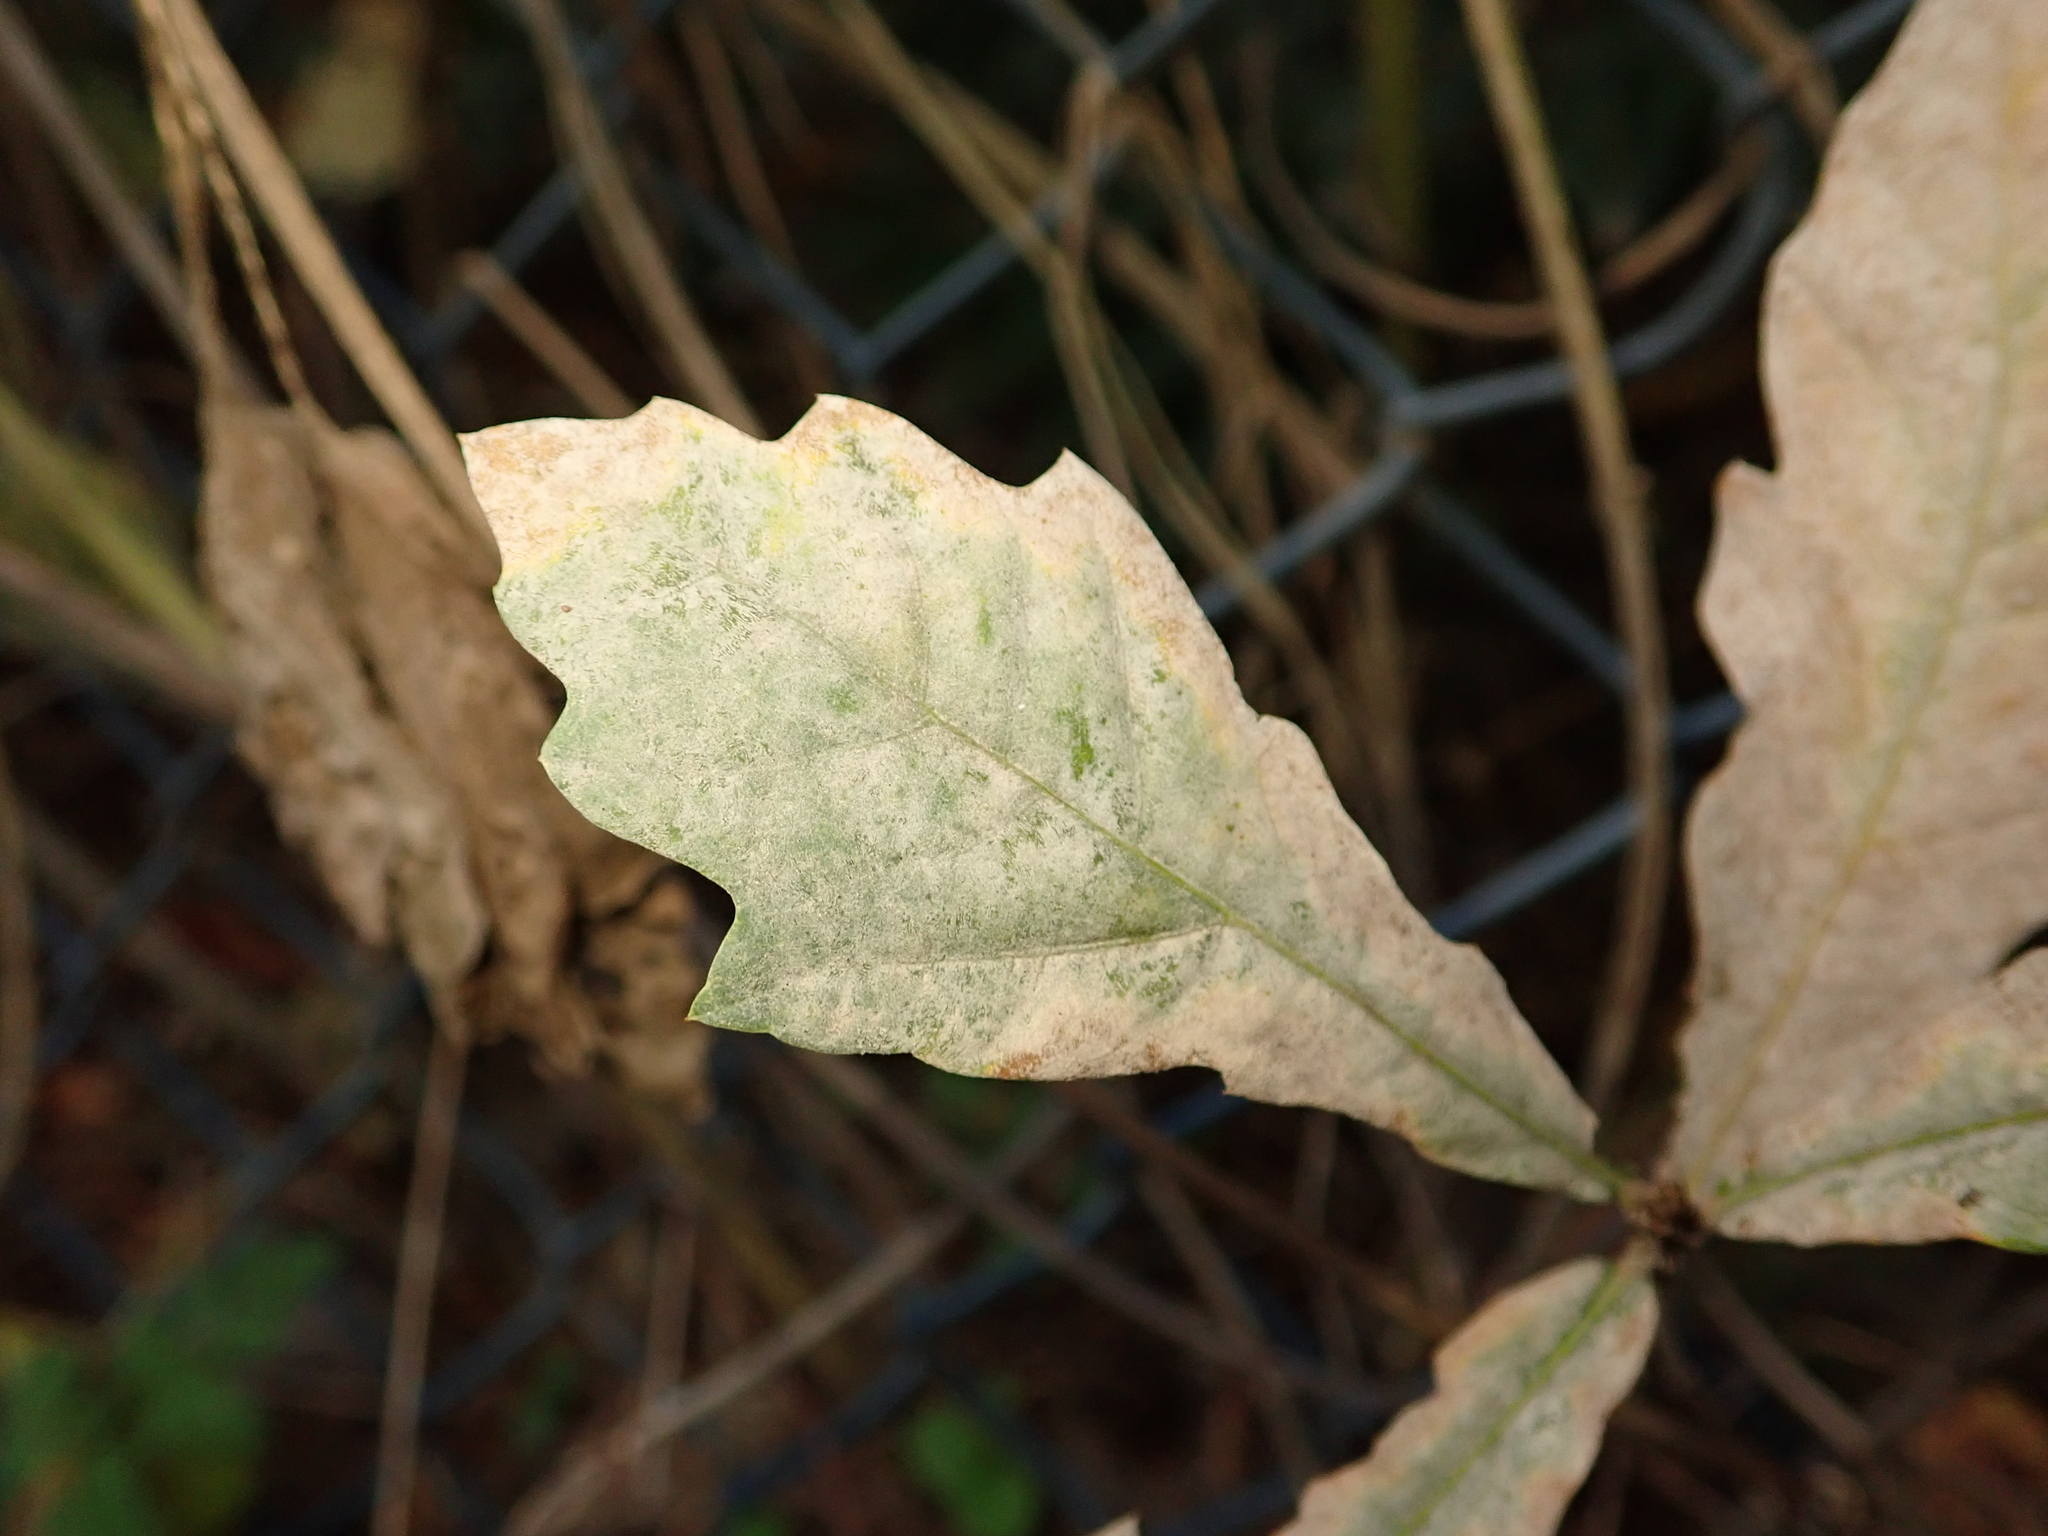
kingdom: Fungi
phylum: Ascomycota
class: Leotiomycetes
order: Helotiales
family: Erysiphaceae
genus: Erysiphe
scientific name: Erysiphe
